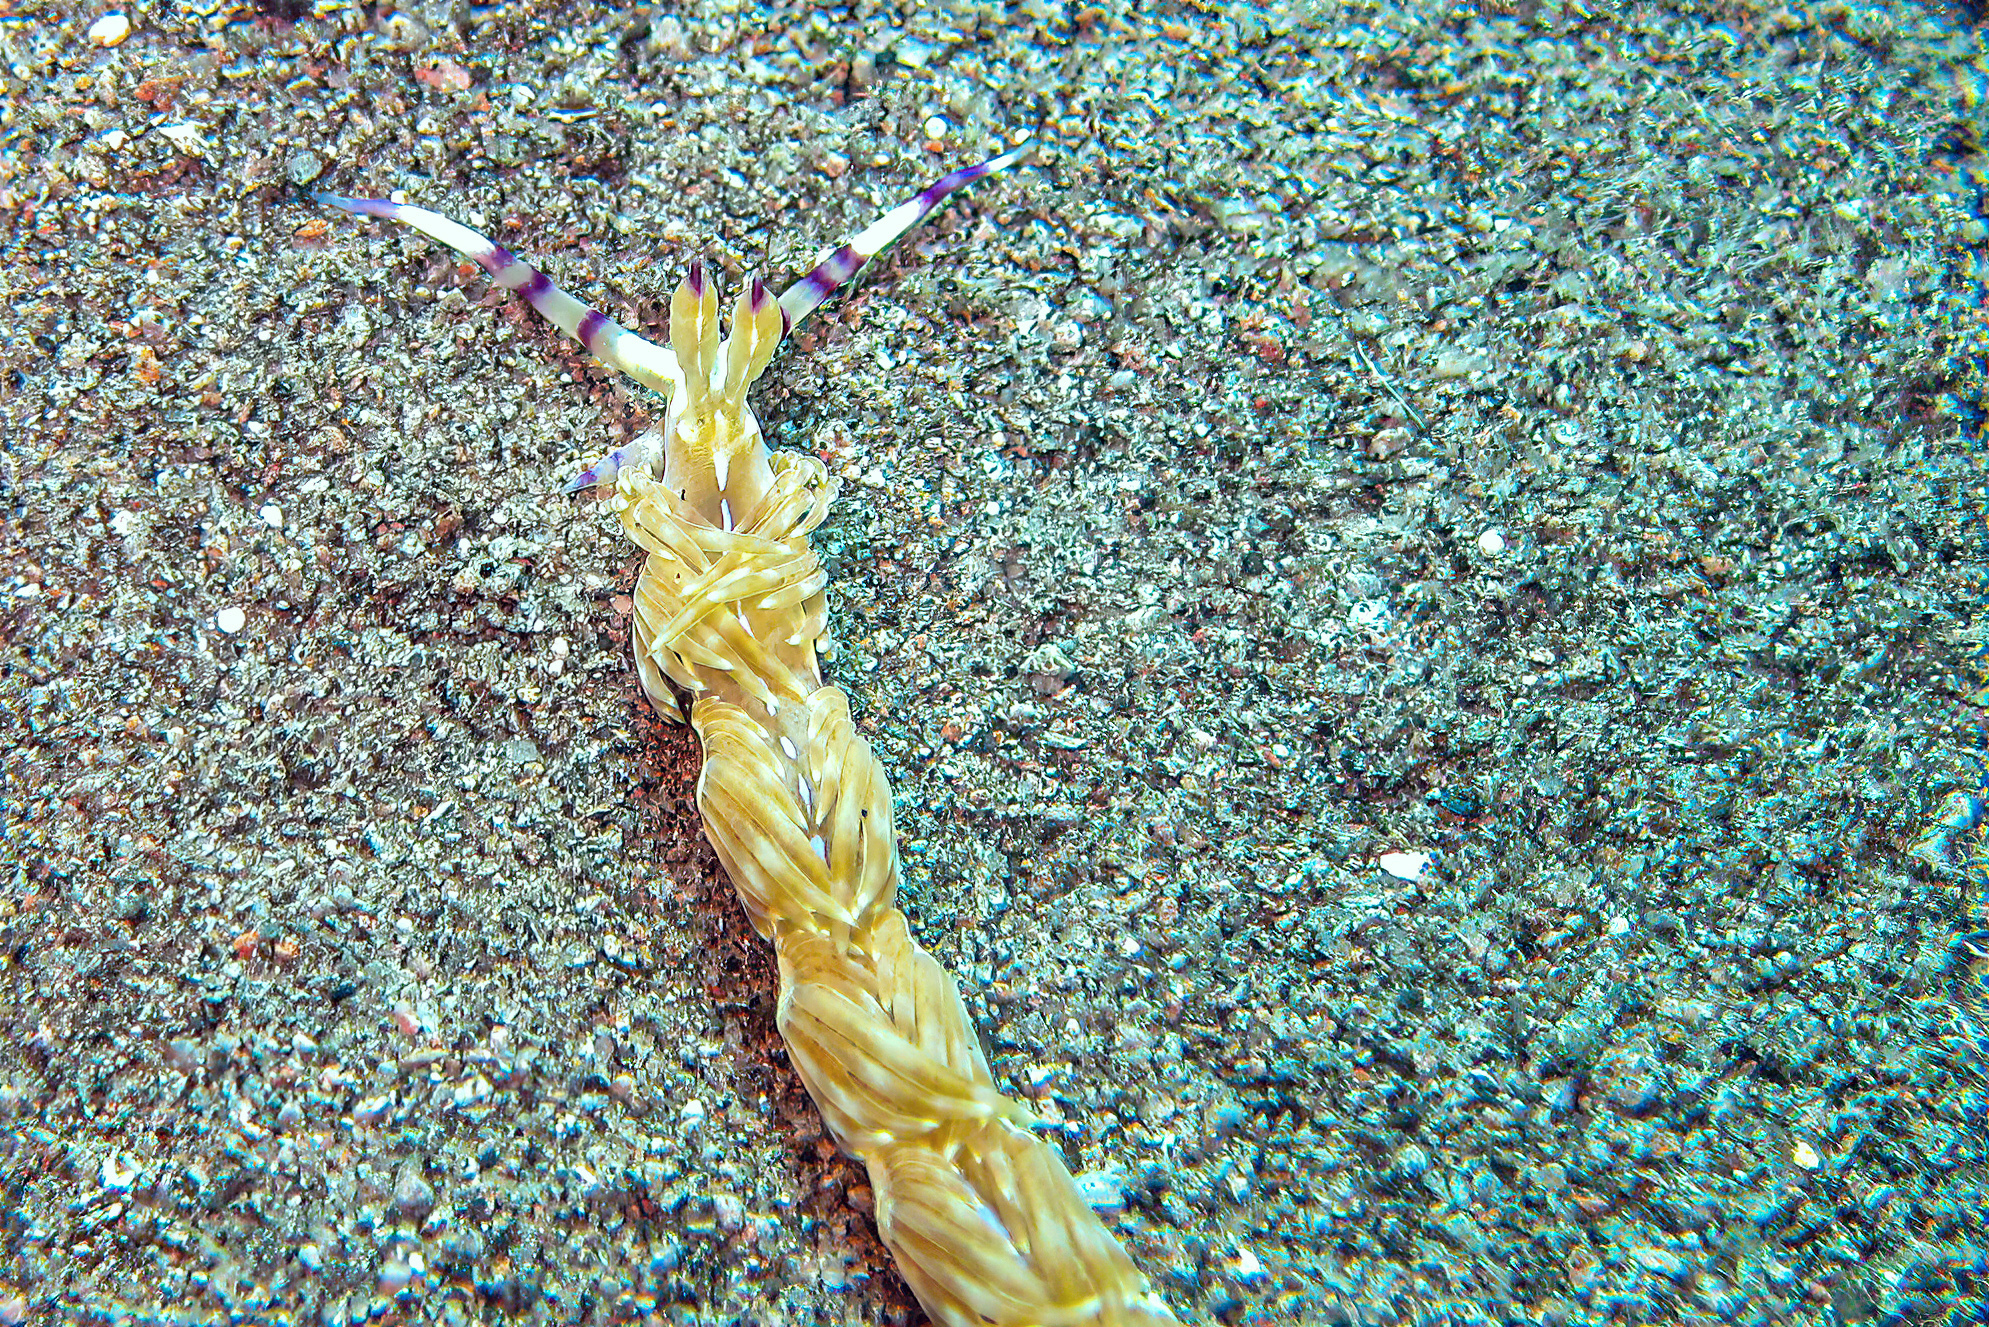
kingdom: Animalia
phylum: Mollusca
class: Gastropoda
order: Nudibranchia
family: Facelinidae
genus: Pteraeolidia
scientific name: Pteraeolidia semperi
